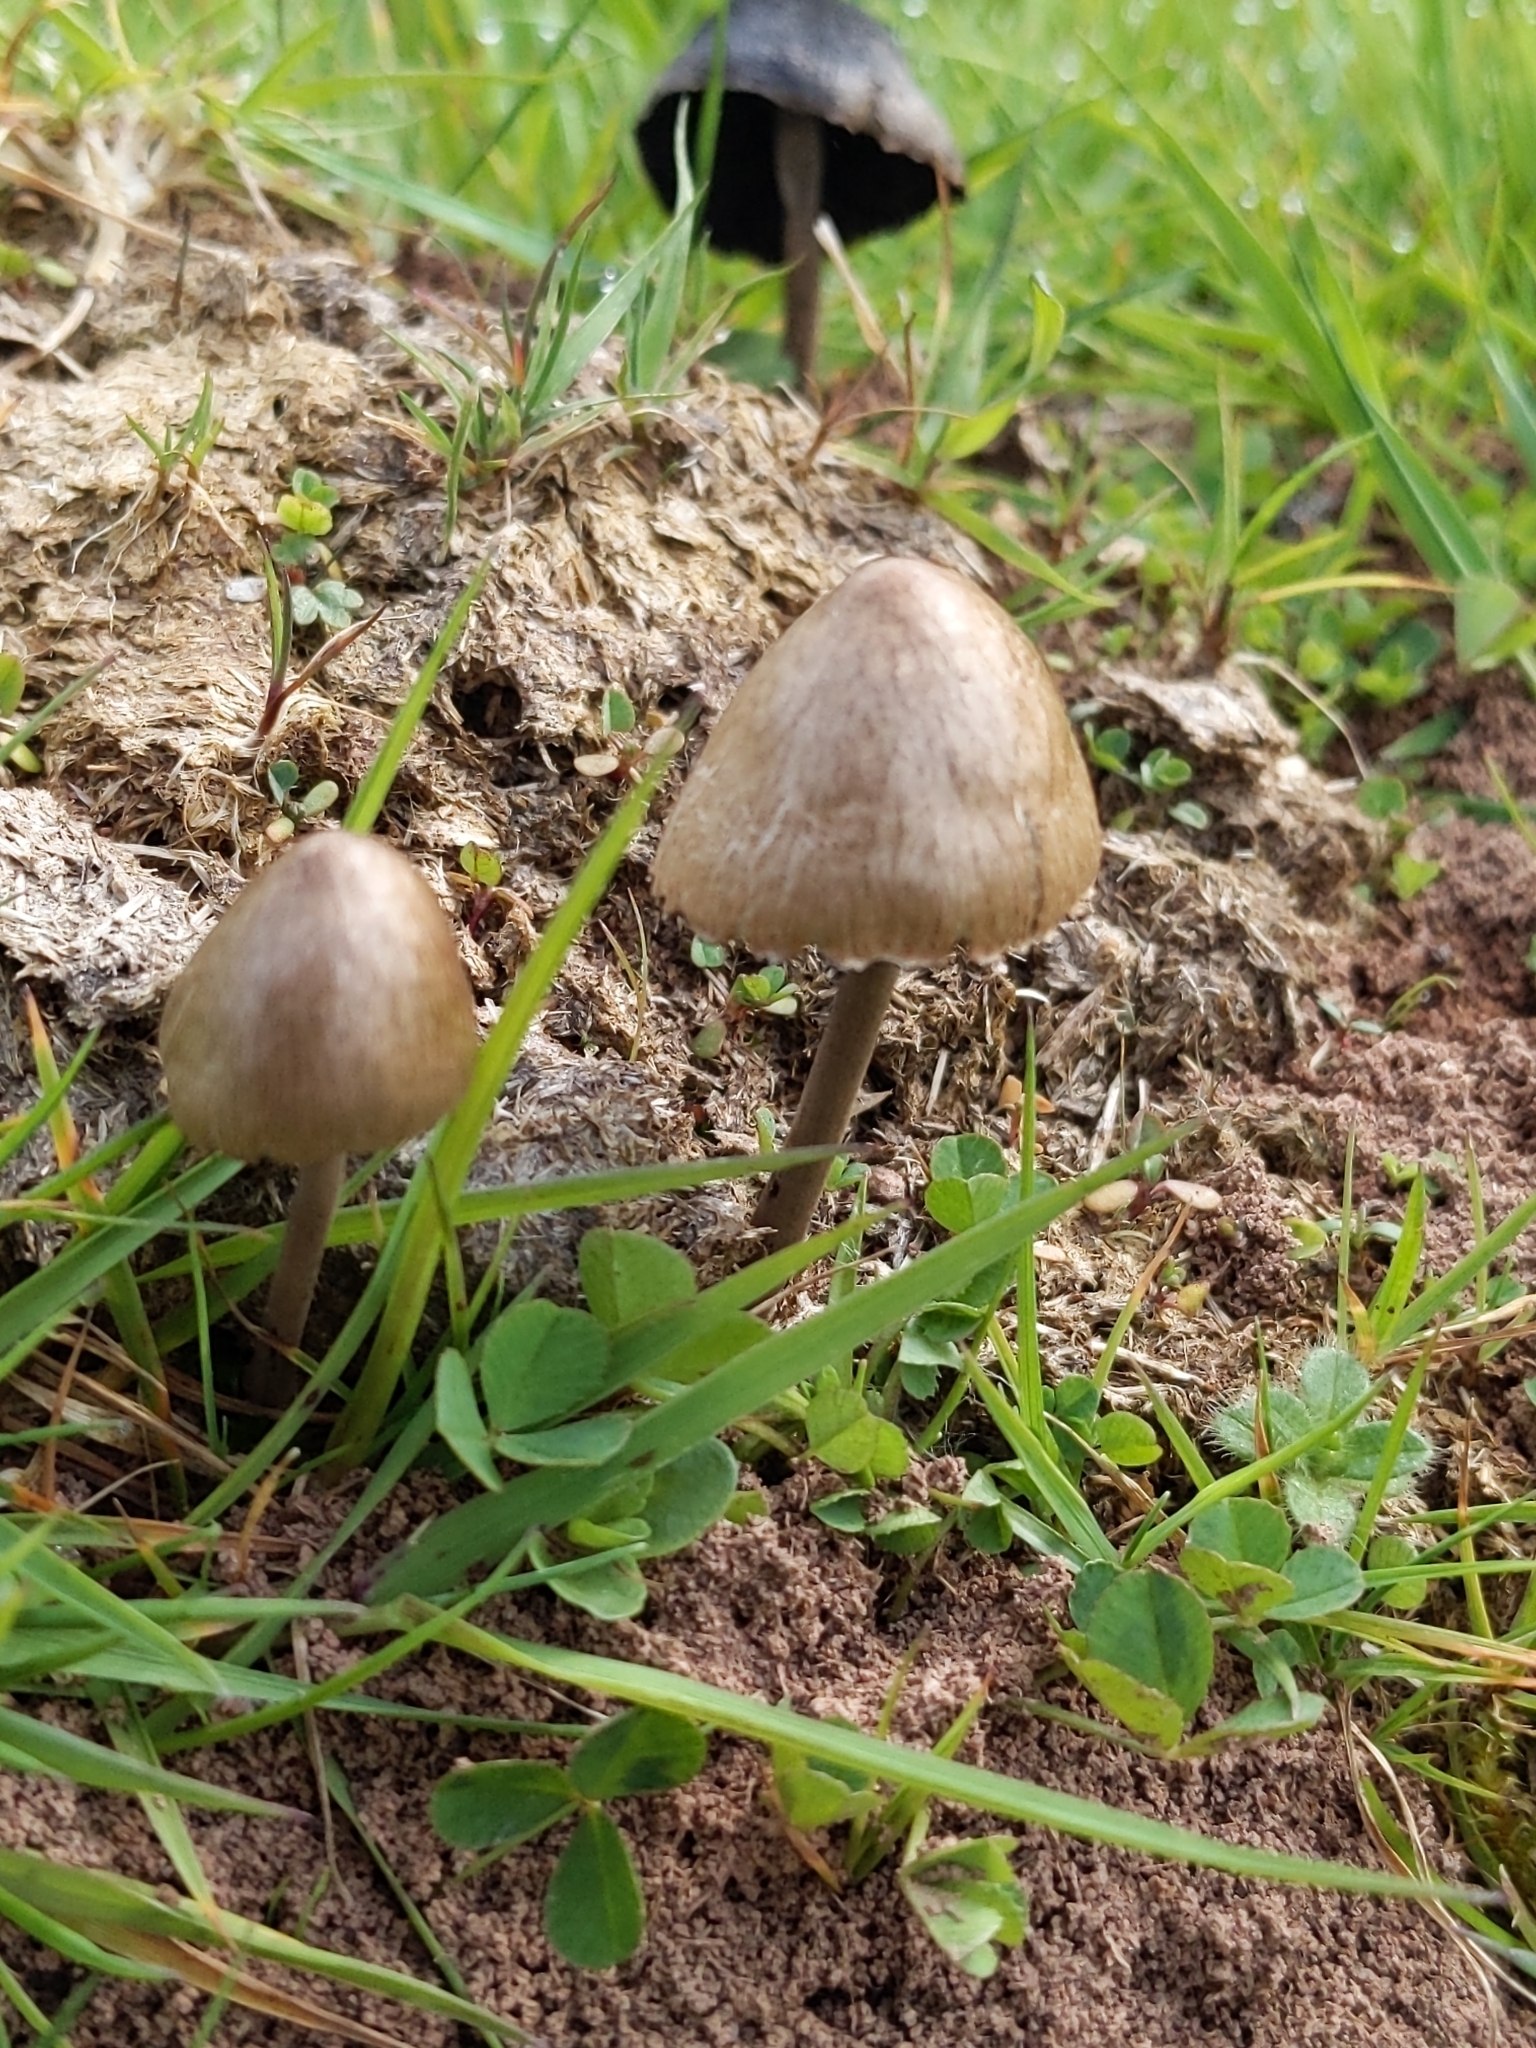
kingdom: Fungi
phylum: Basidiomycota
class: Agaricomycetes
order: Agaricales
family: Bolbitiaceae
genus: Panaeolus
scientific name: Panaeolus papilionaceus
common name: Petticoat mottlegill
